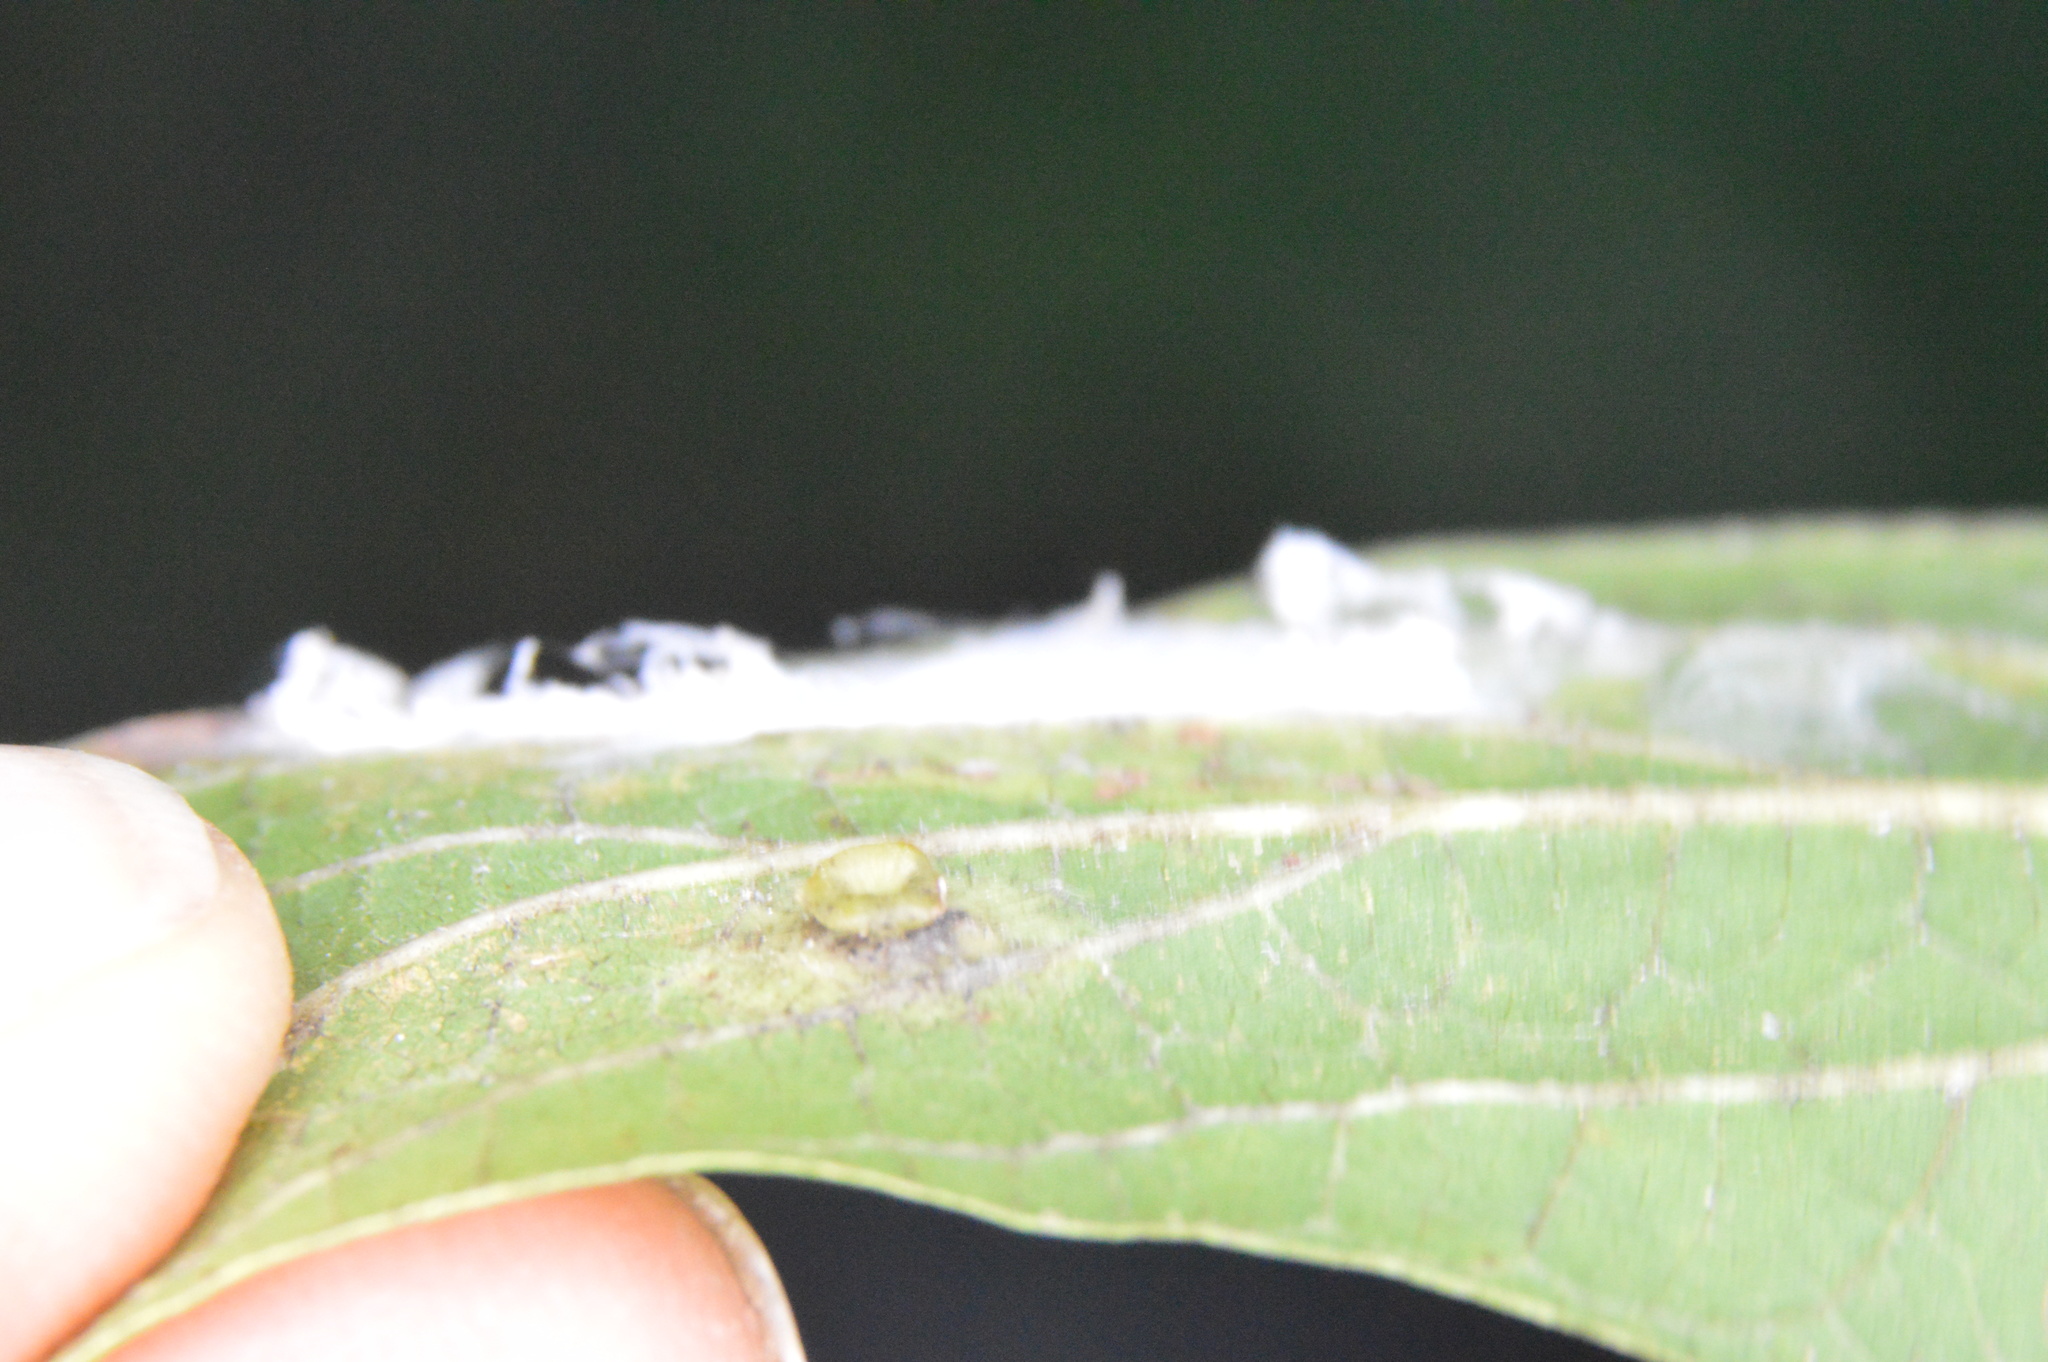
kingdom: Animalia
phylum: Arthropoda
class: Insecta
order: Hemiptera
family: Aphalaridae
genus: Pachypsylla
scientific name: Pachypsylla celtidisasterisca
